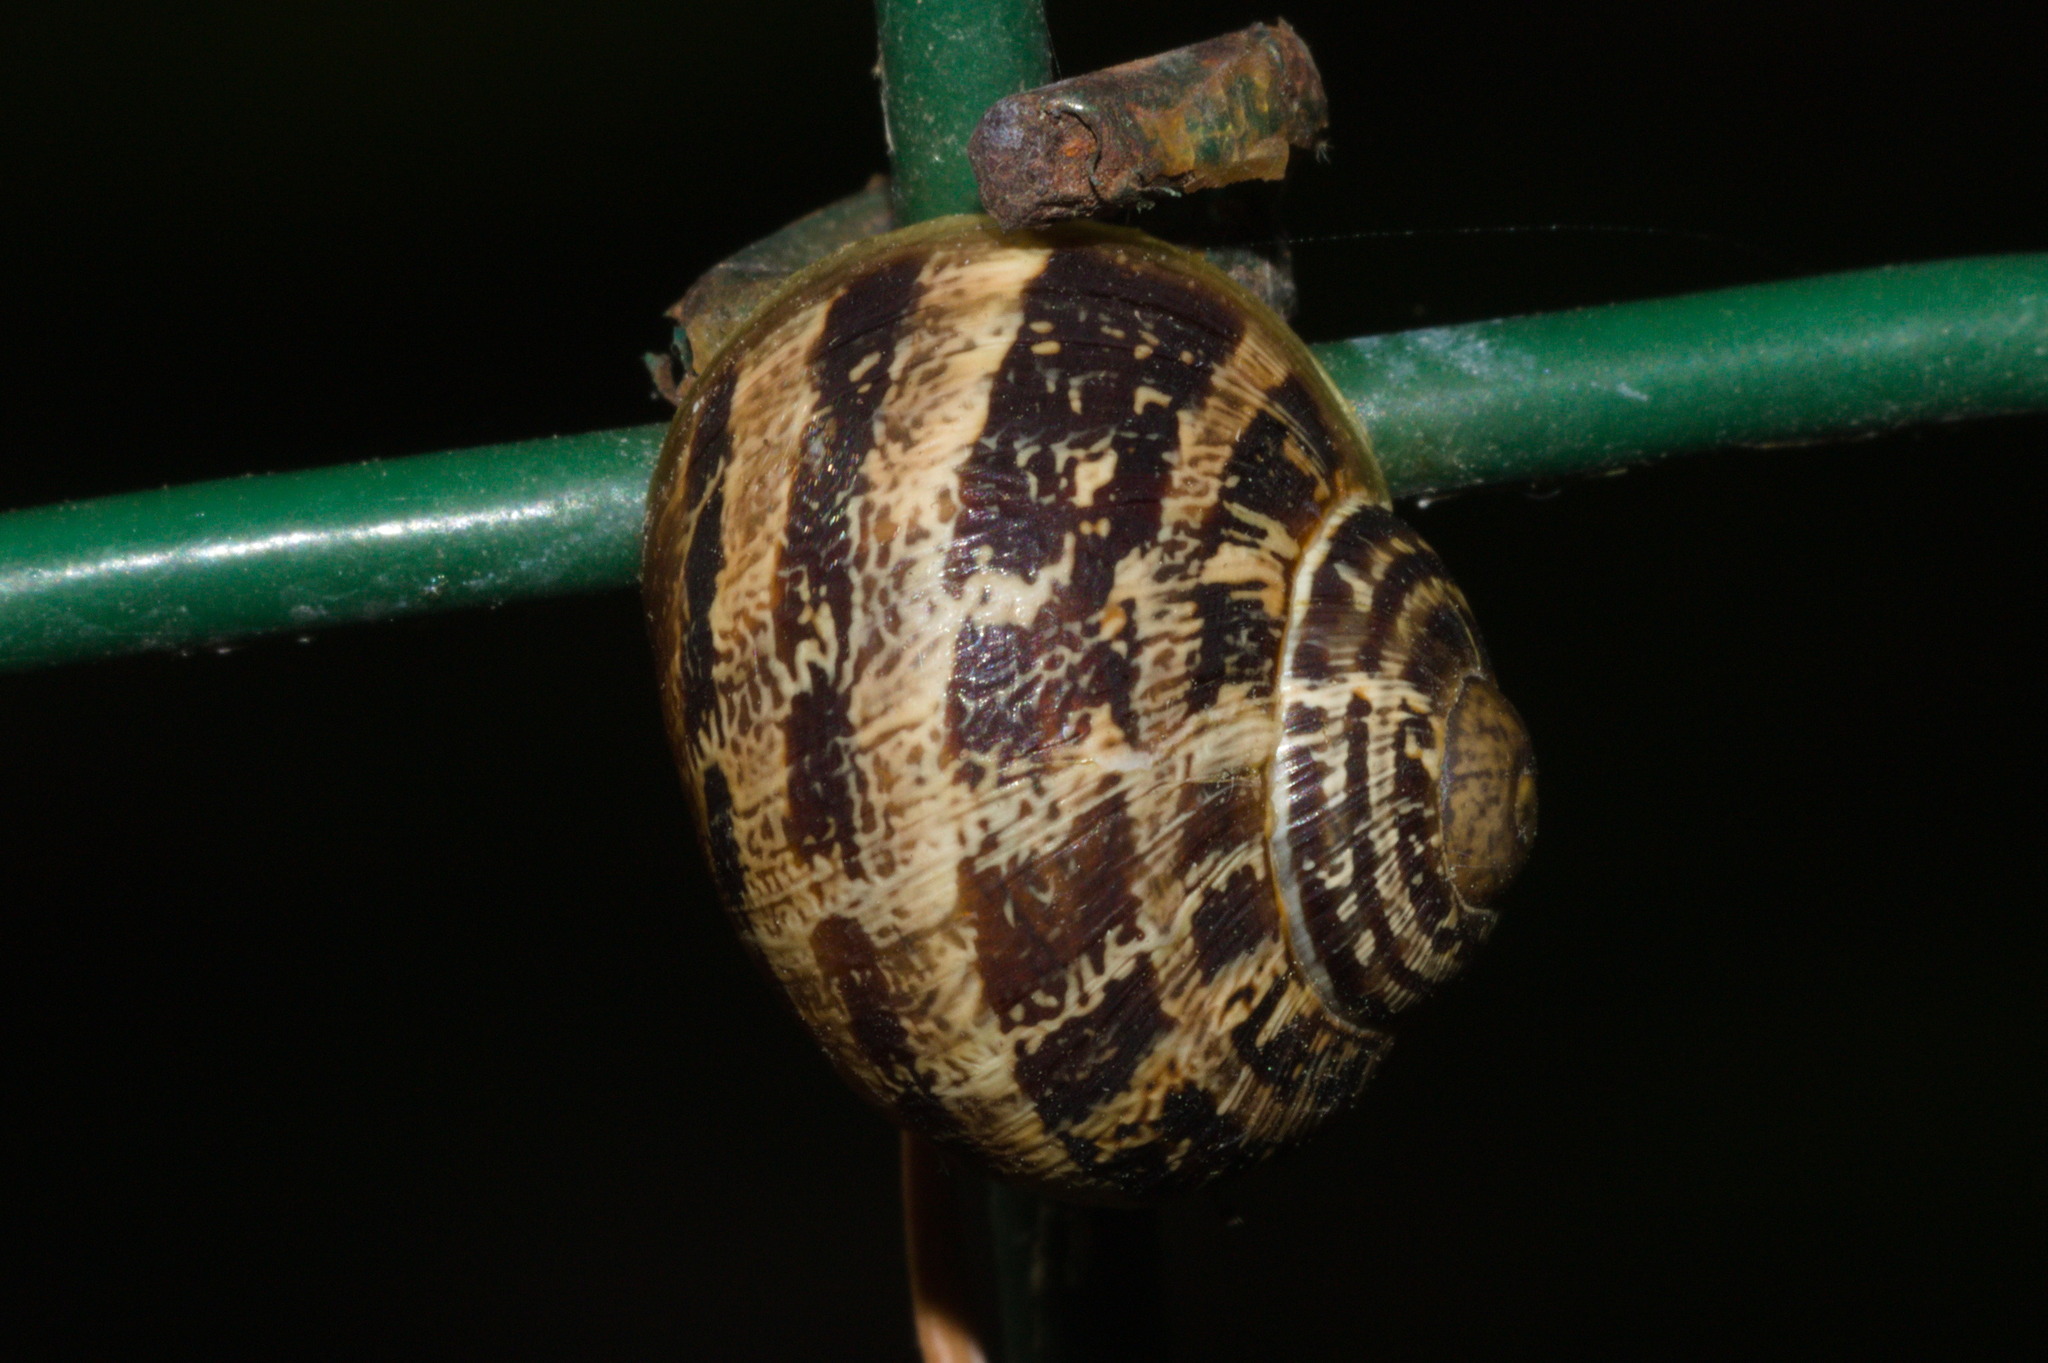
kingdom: Animalia
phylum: Mollusca
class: Gastropoda
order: Stylommatophora
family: Helicidae
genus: Cornu
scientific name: Cornu aspersum
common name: Brown garden snail
